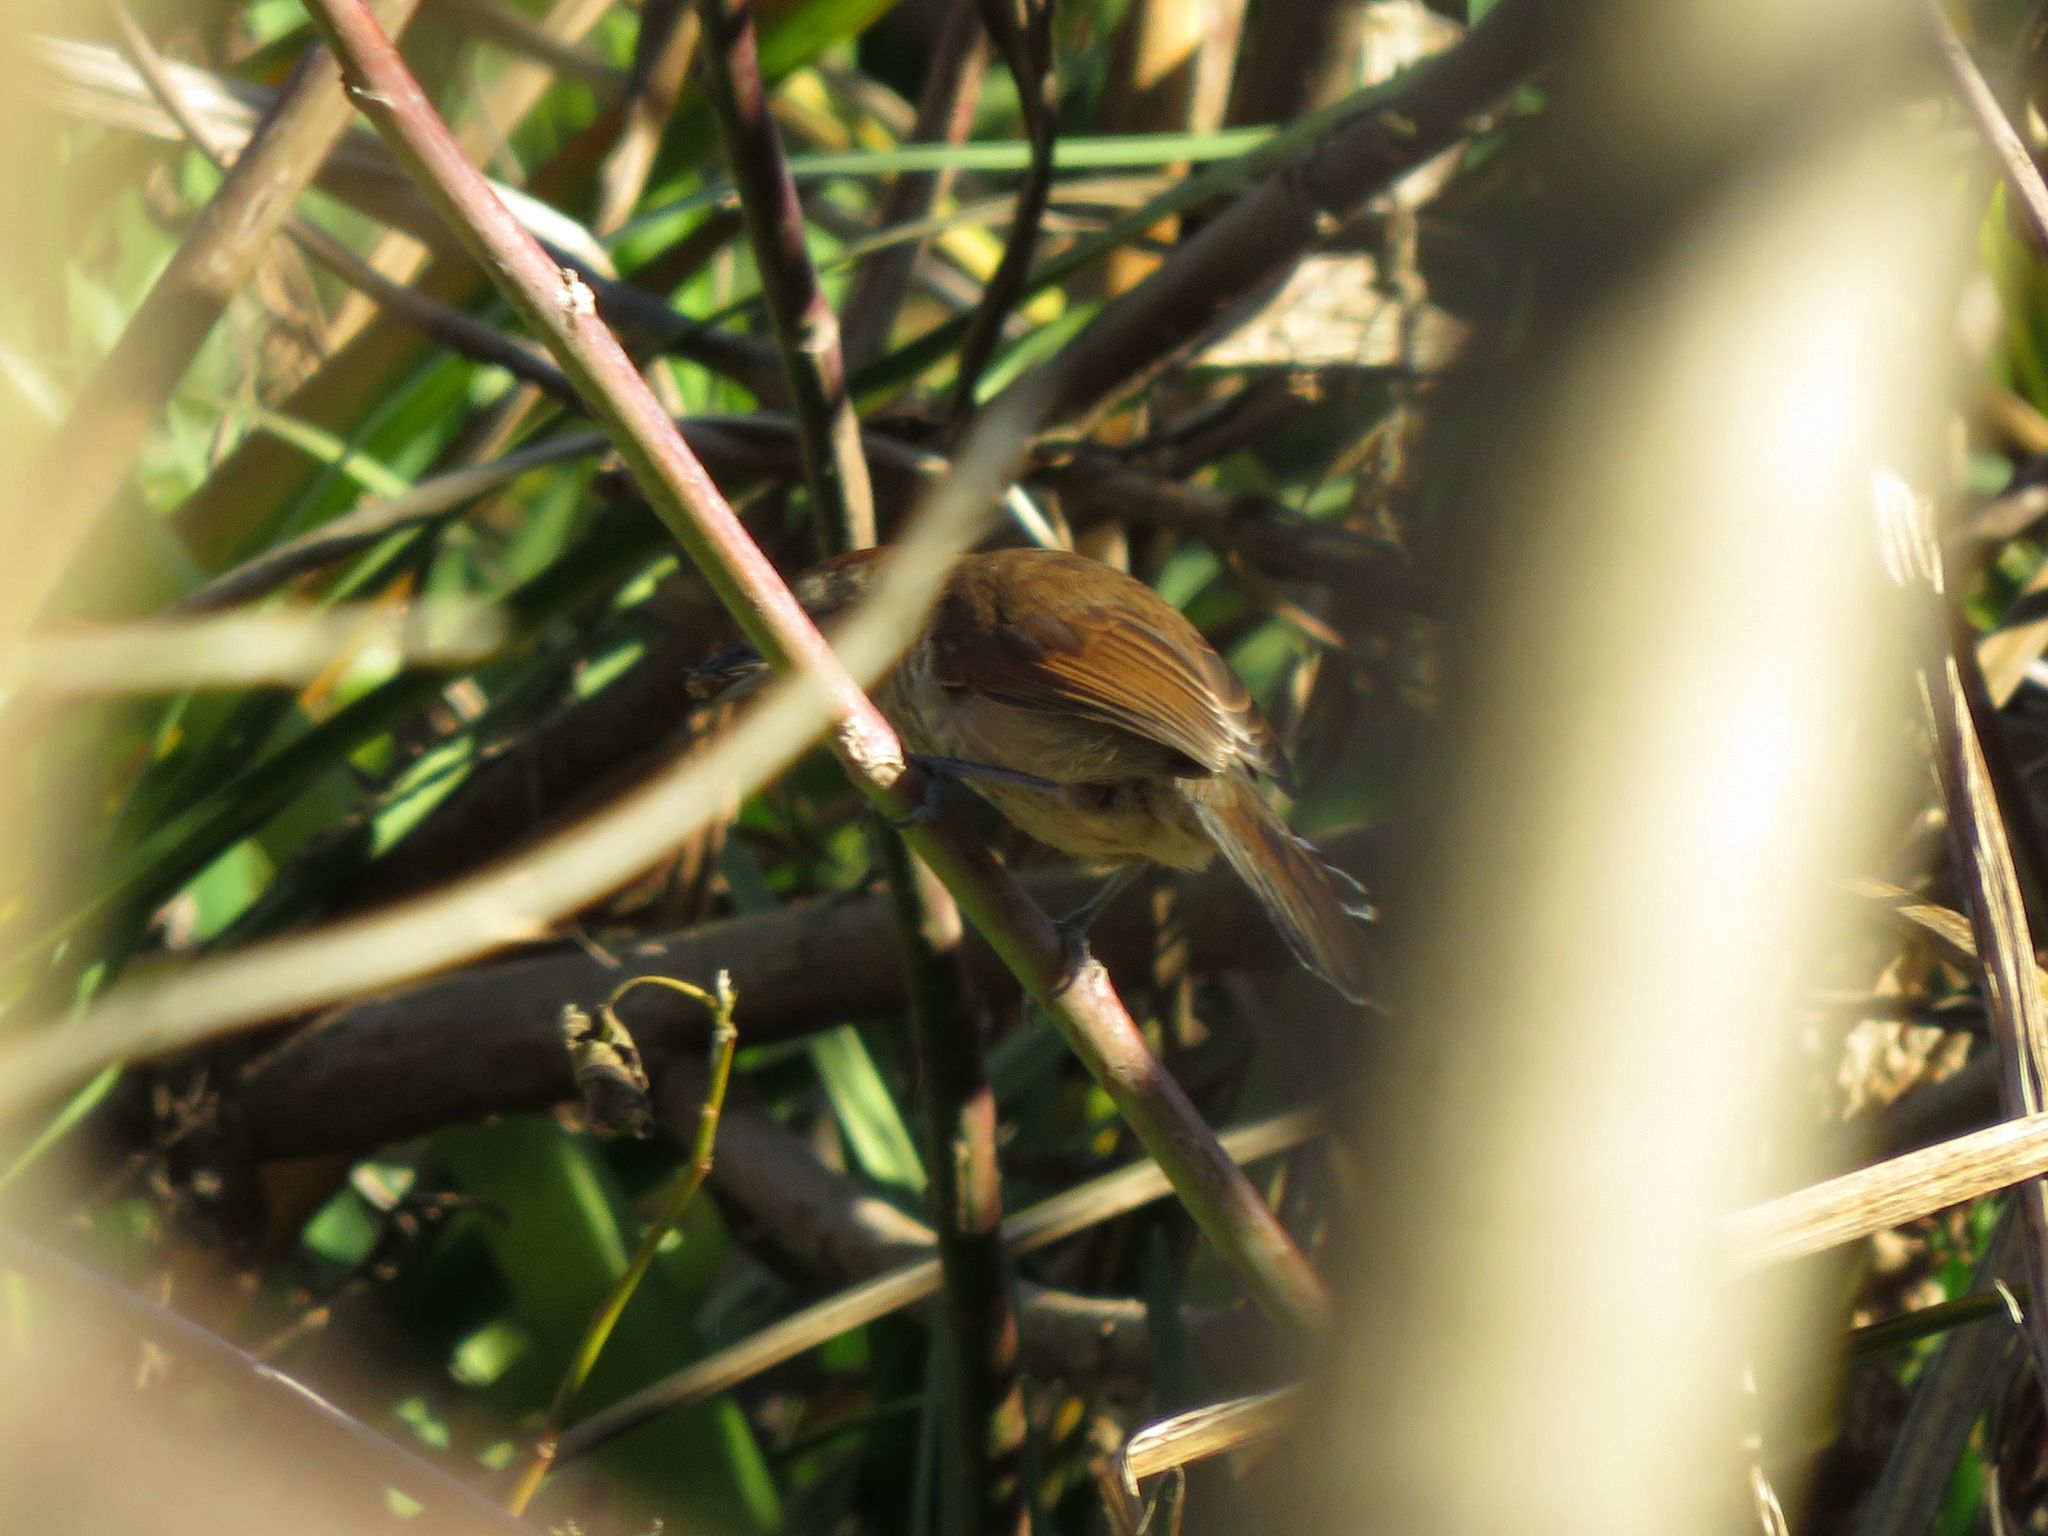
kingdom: Animalia
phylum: Chordata
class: Aves
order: Passeriformes
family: Furnariidae
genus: Phacellodomus
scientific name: Phacellodomus striaticollis
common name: Freckle-breasted thornbird
